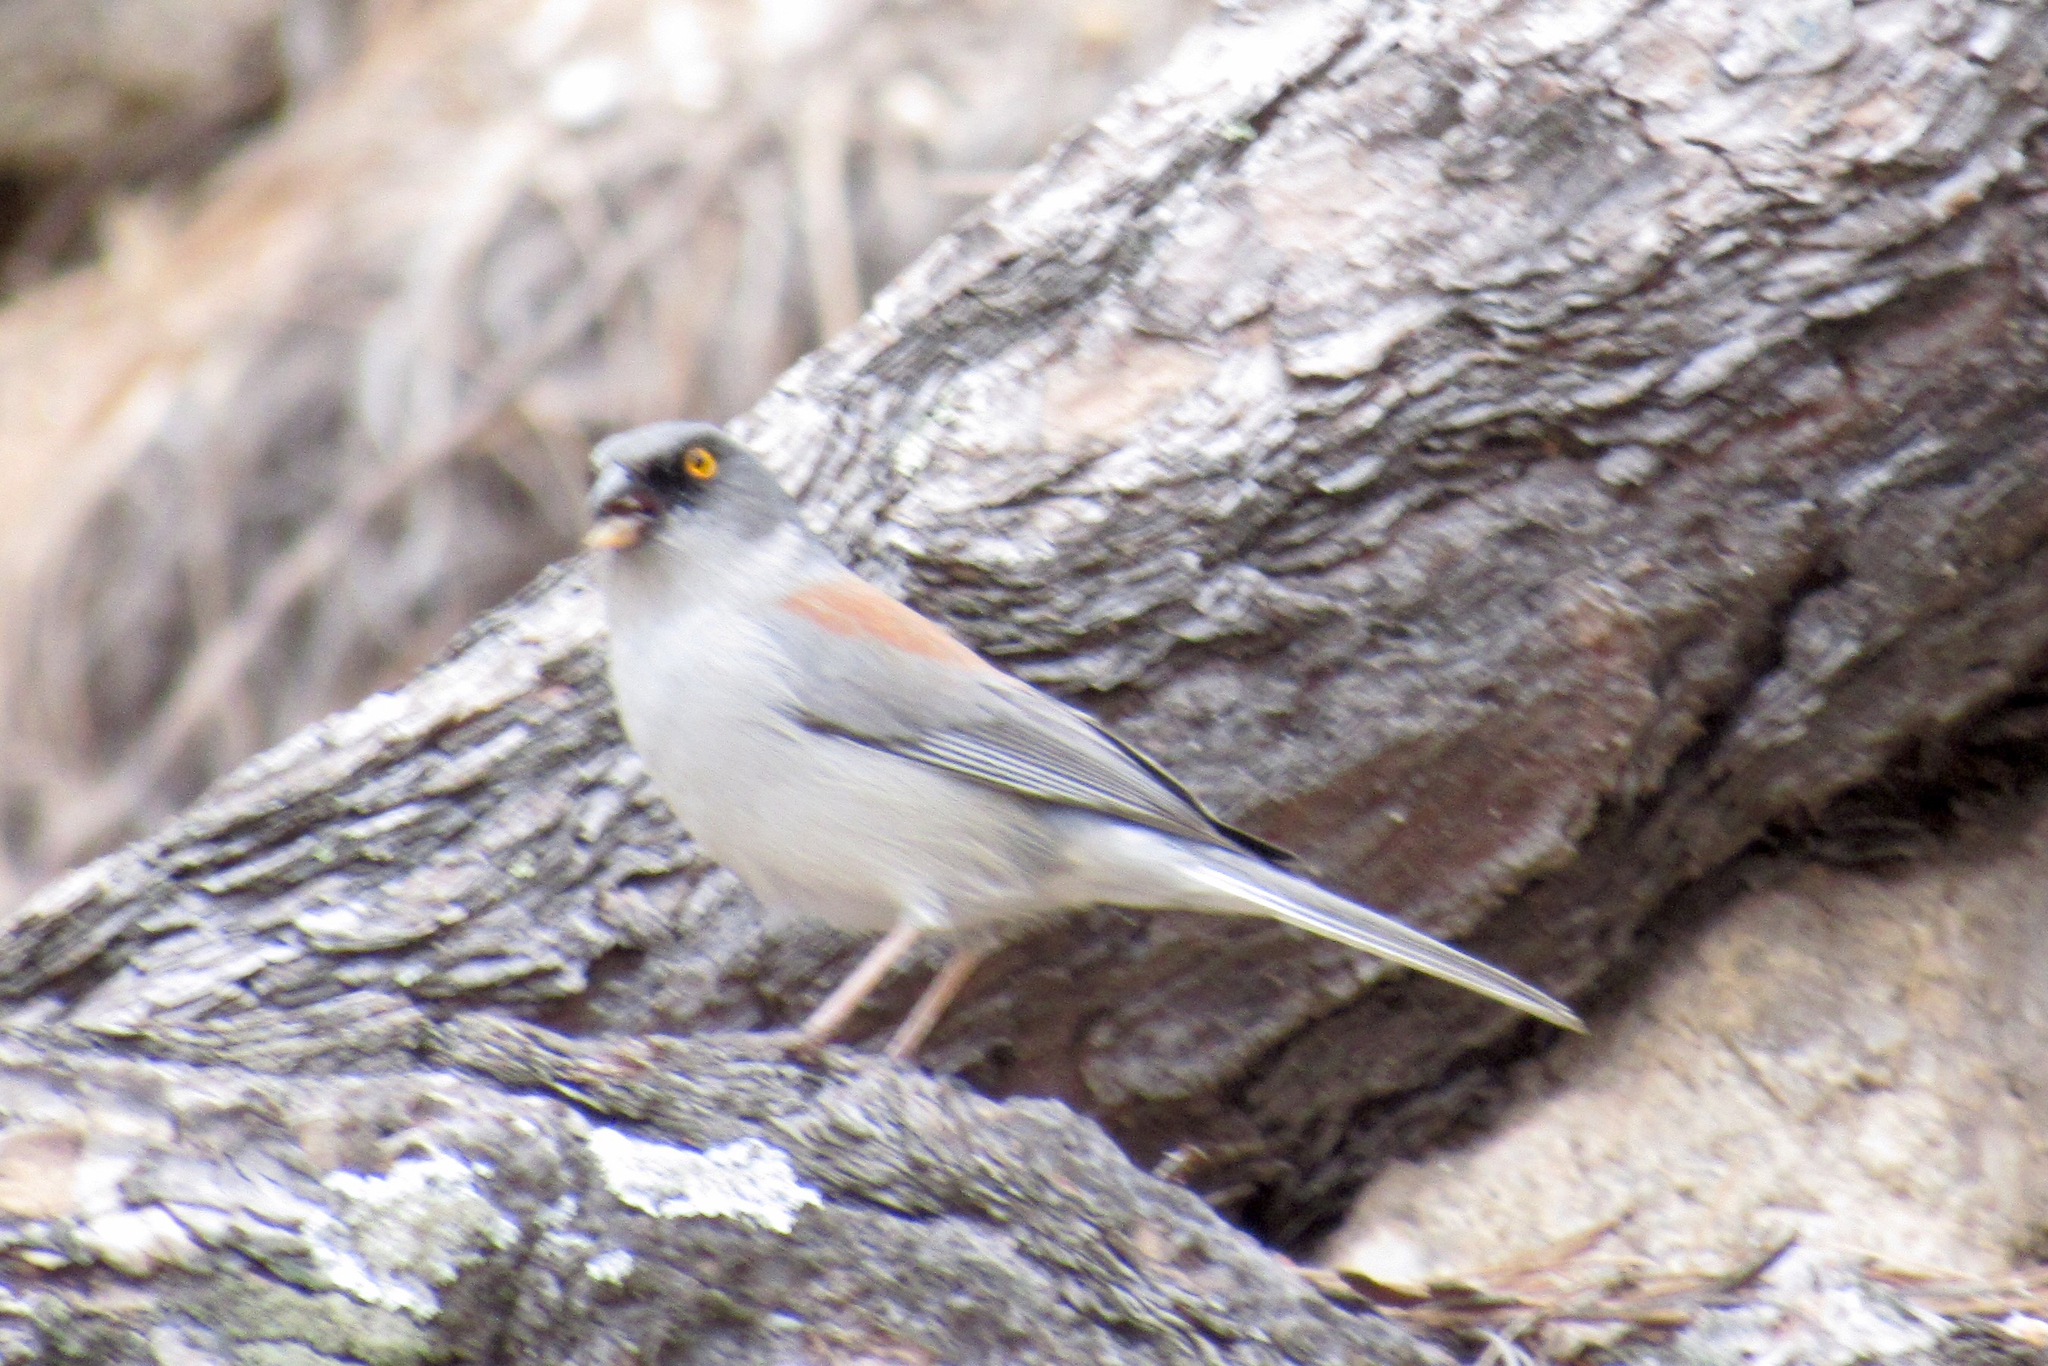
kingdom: Animalia
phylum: Chordata
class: Aves
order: Passeriformes
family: Passerellidae
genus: Junco
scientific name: Junco phaeonotus
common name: Yellow-eyed junco
